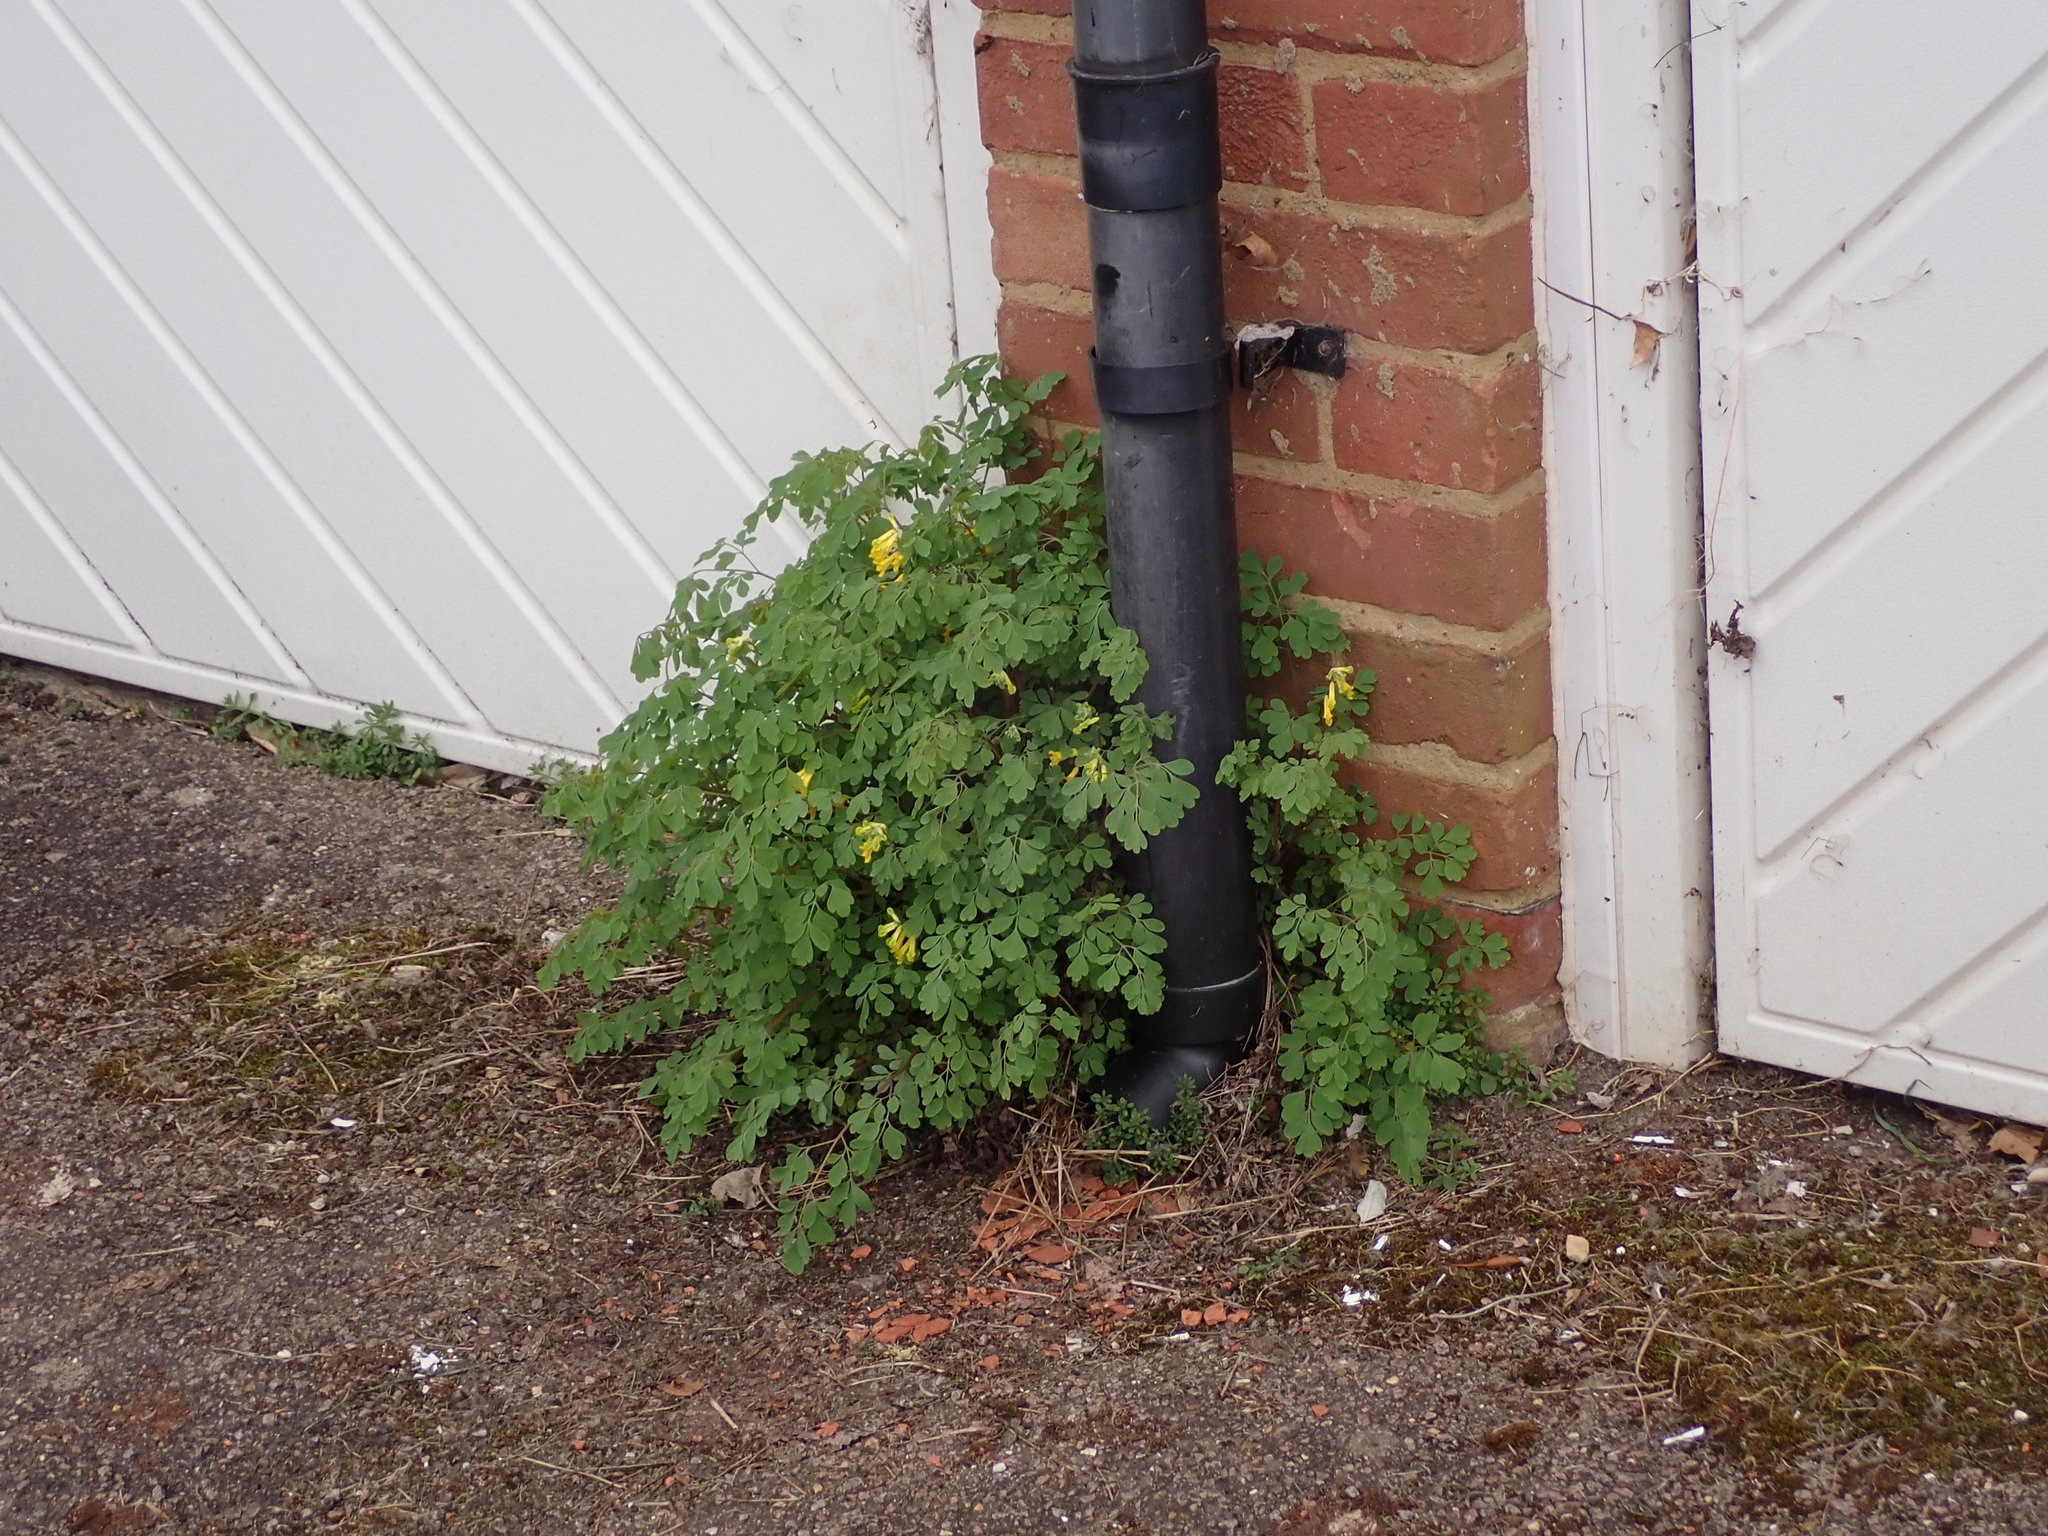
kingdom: Plantae
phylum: Tracheophyta
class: Magnoliopsida
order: Ranunculales
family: Papaveraceae
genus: Pseudofumaria
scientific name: Pseudofumaria lutea
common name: Yellow corydalis
